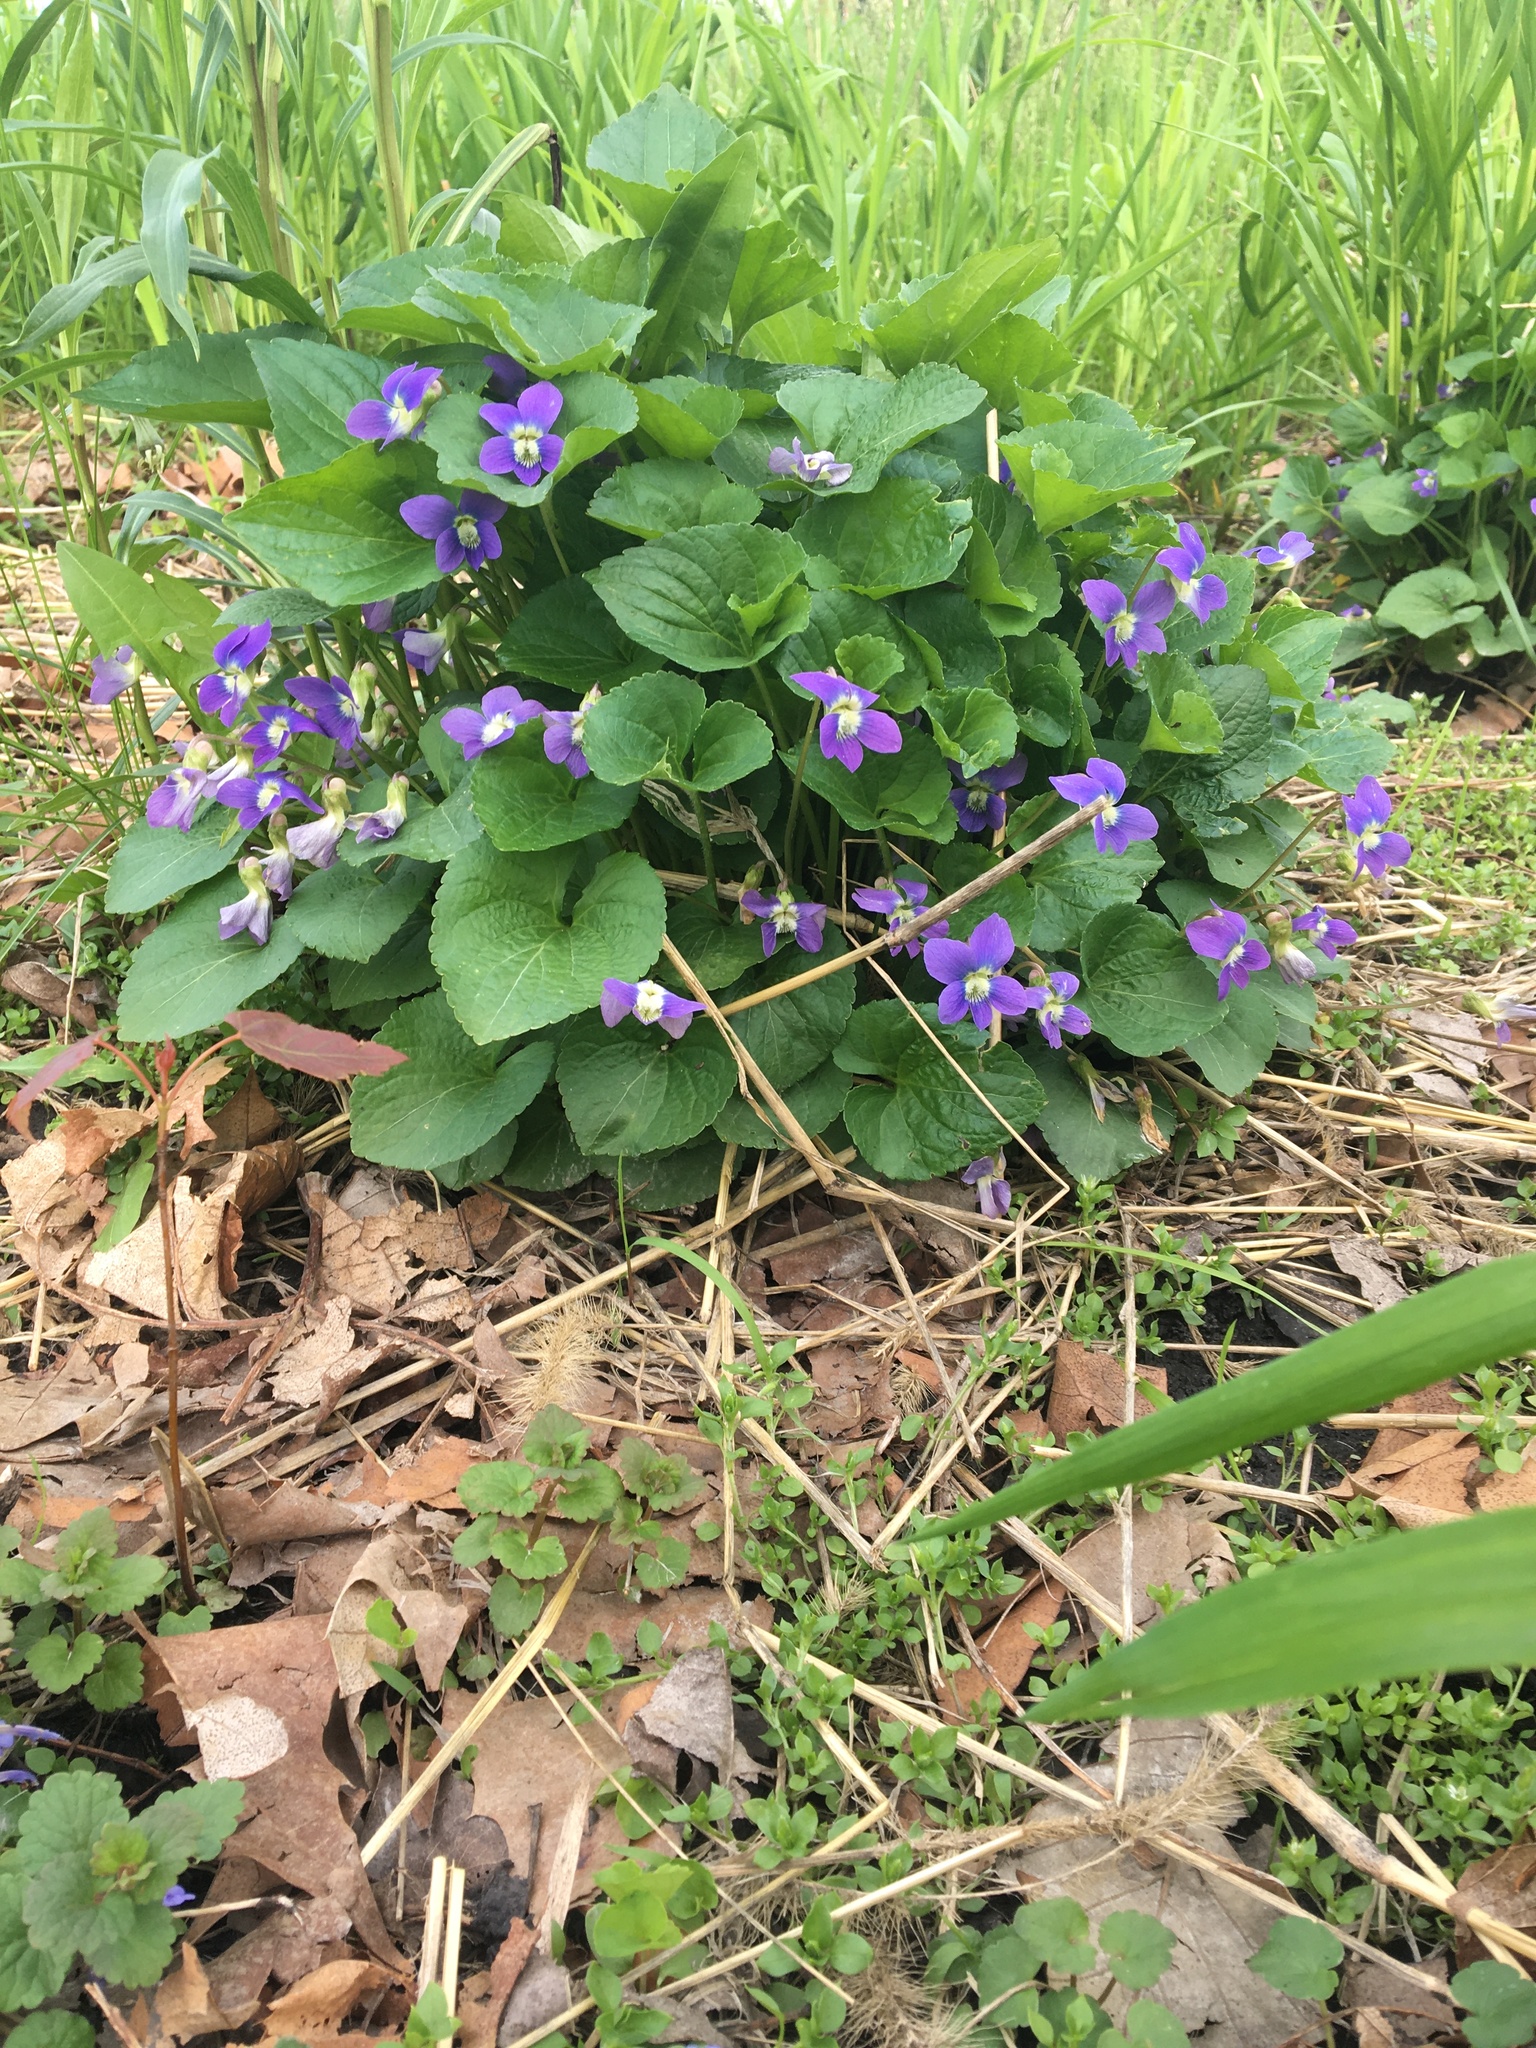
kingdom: Plantae
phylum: Tracheophyta
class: Magnoliopsida
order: Malpighiales
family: Violaceae
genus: Viola
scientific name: Viola sororia
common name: Dooryard violet
